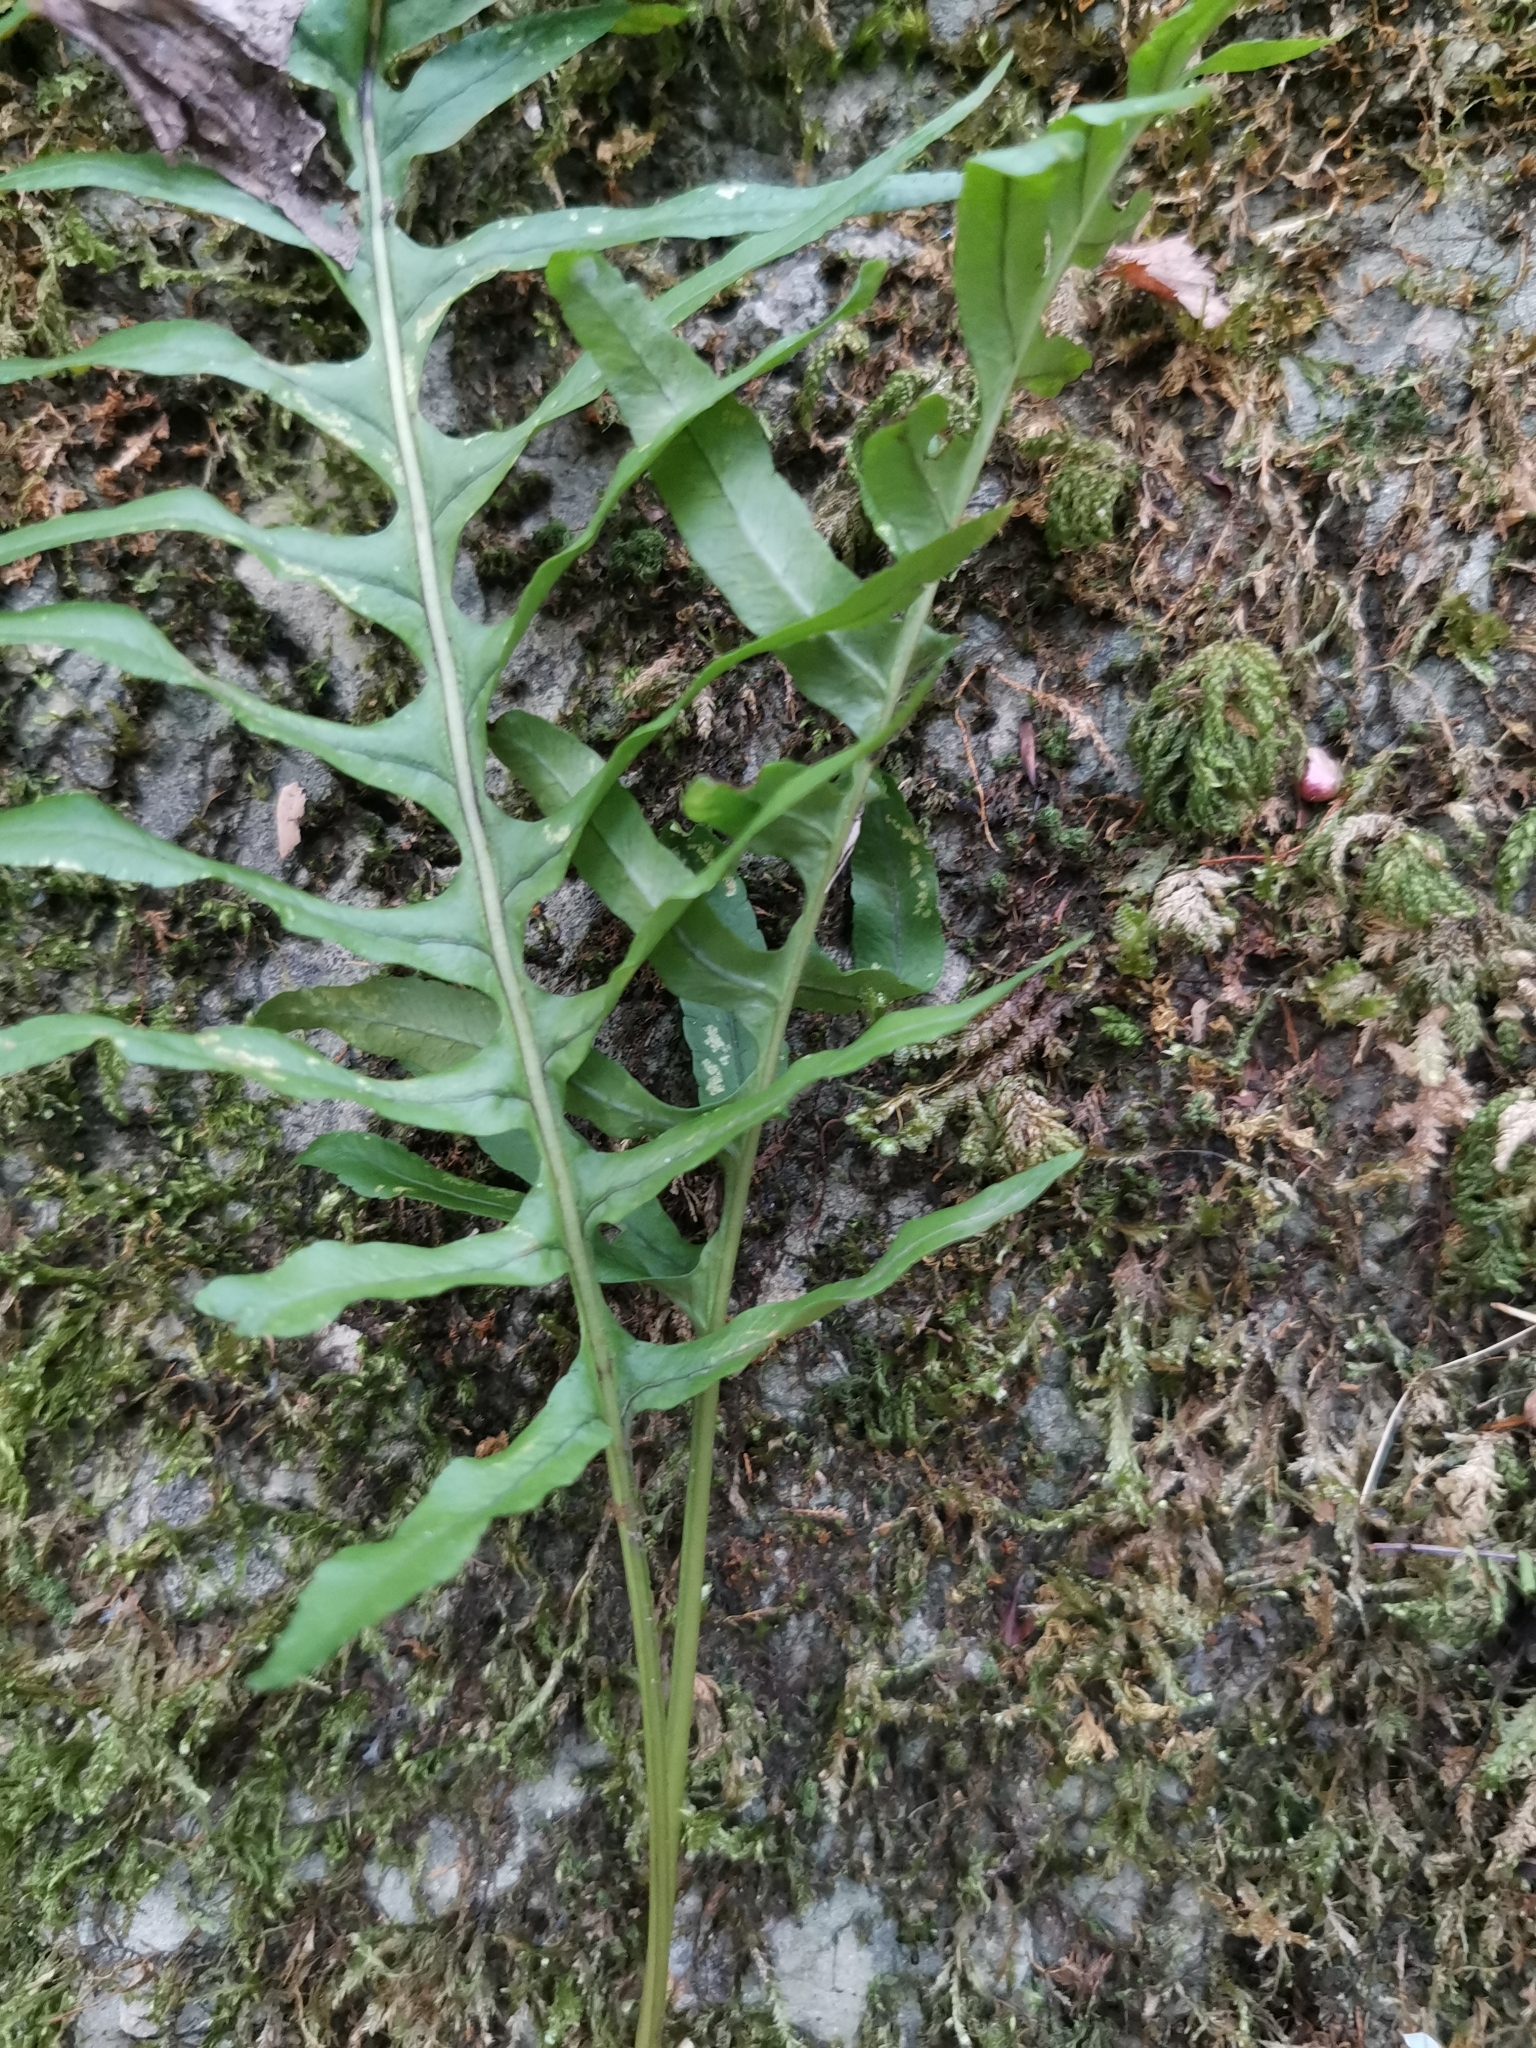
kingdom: Plantae
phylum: Tracheophyta
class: Polypodiopsida
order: Polypodiales
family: Polypodiaceae
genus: Polypodium
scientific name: Polypodium cambricum
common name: Southern polypody
